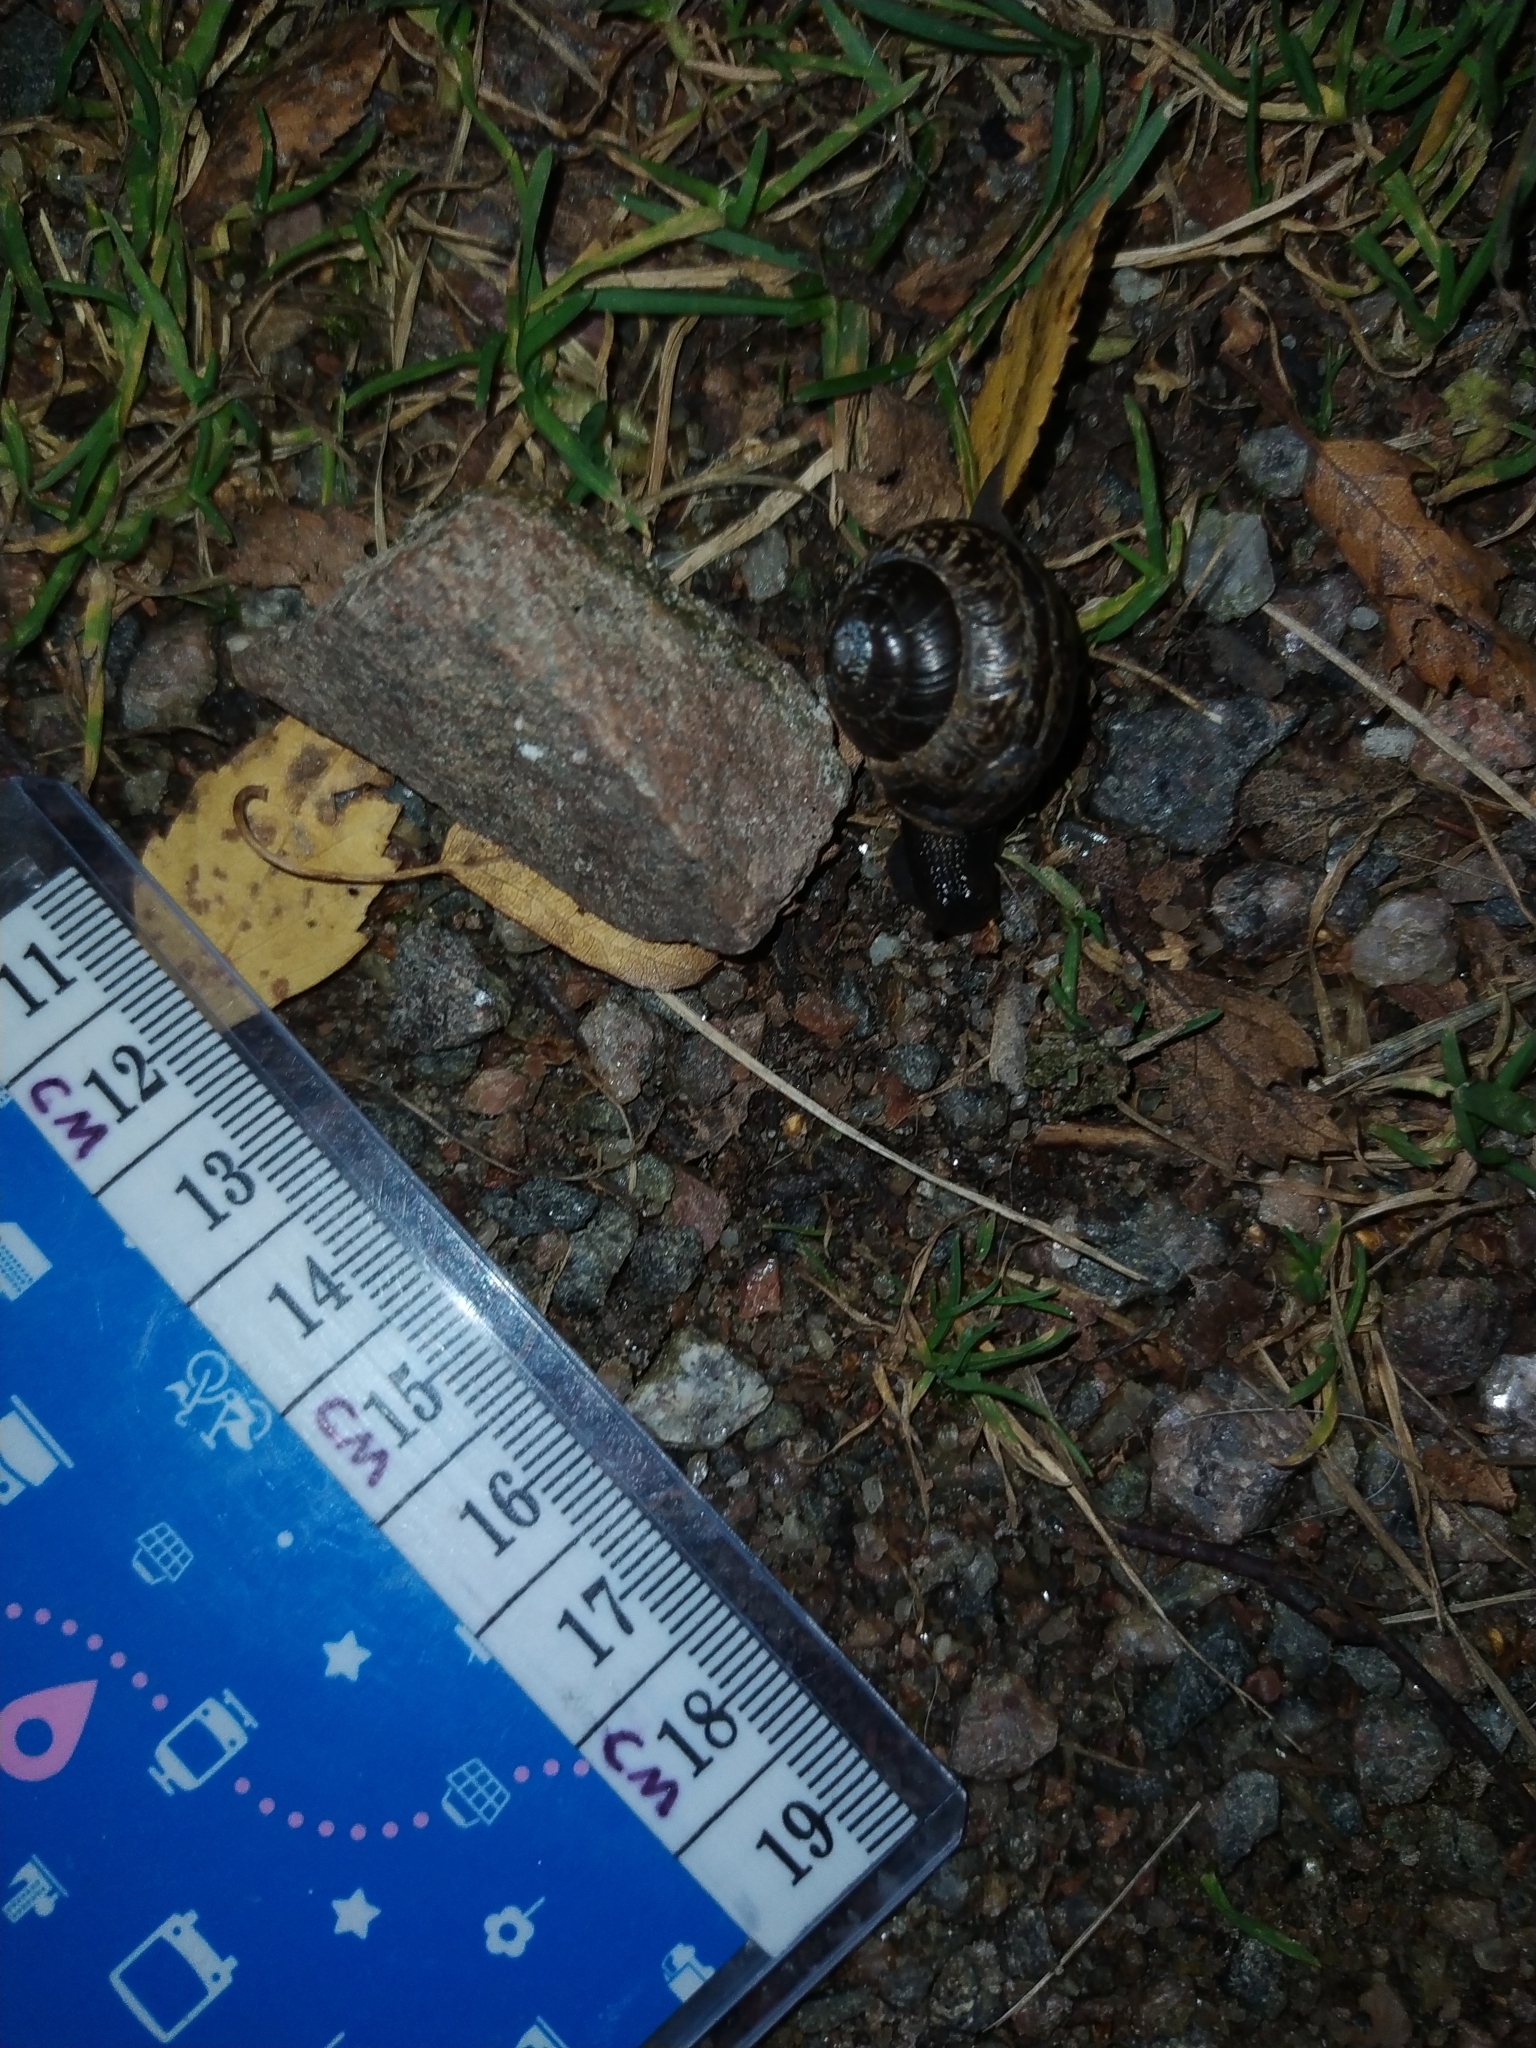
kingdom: Animalia
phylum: Mollusca
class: Gastropoda
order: Stylommatophora
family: Helicidae
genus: Arianta
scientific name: Arianta arbustorum
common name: Copse snail
